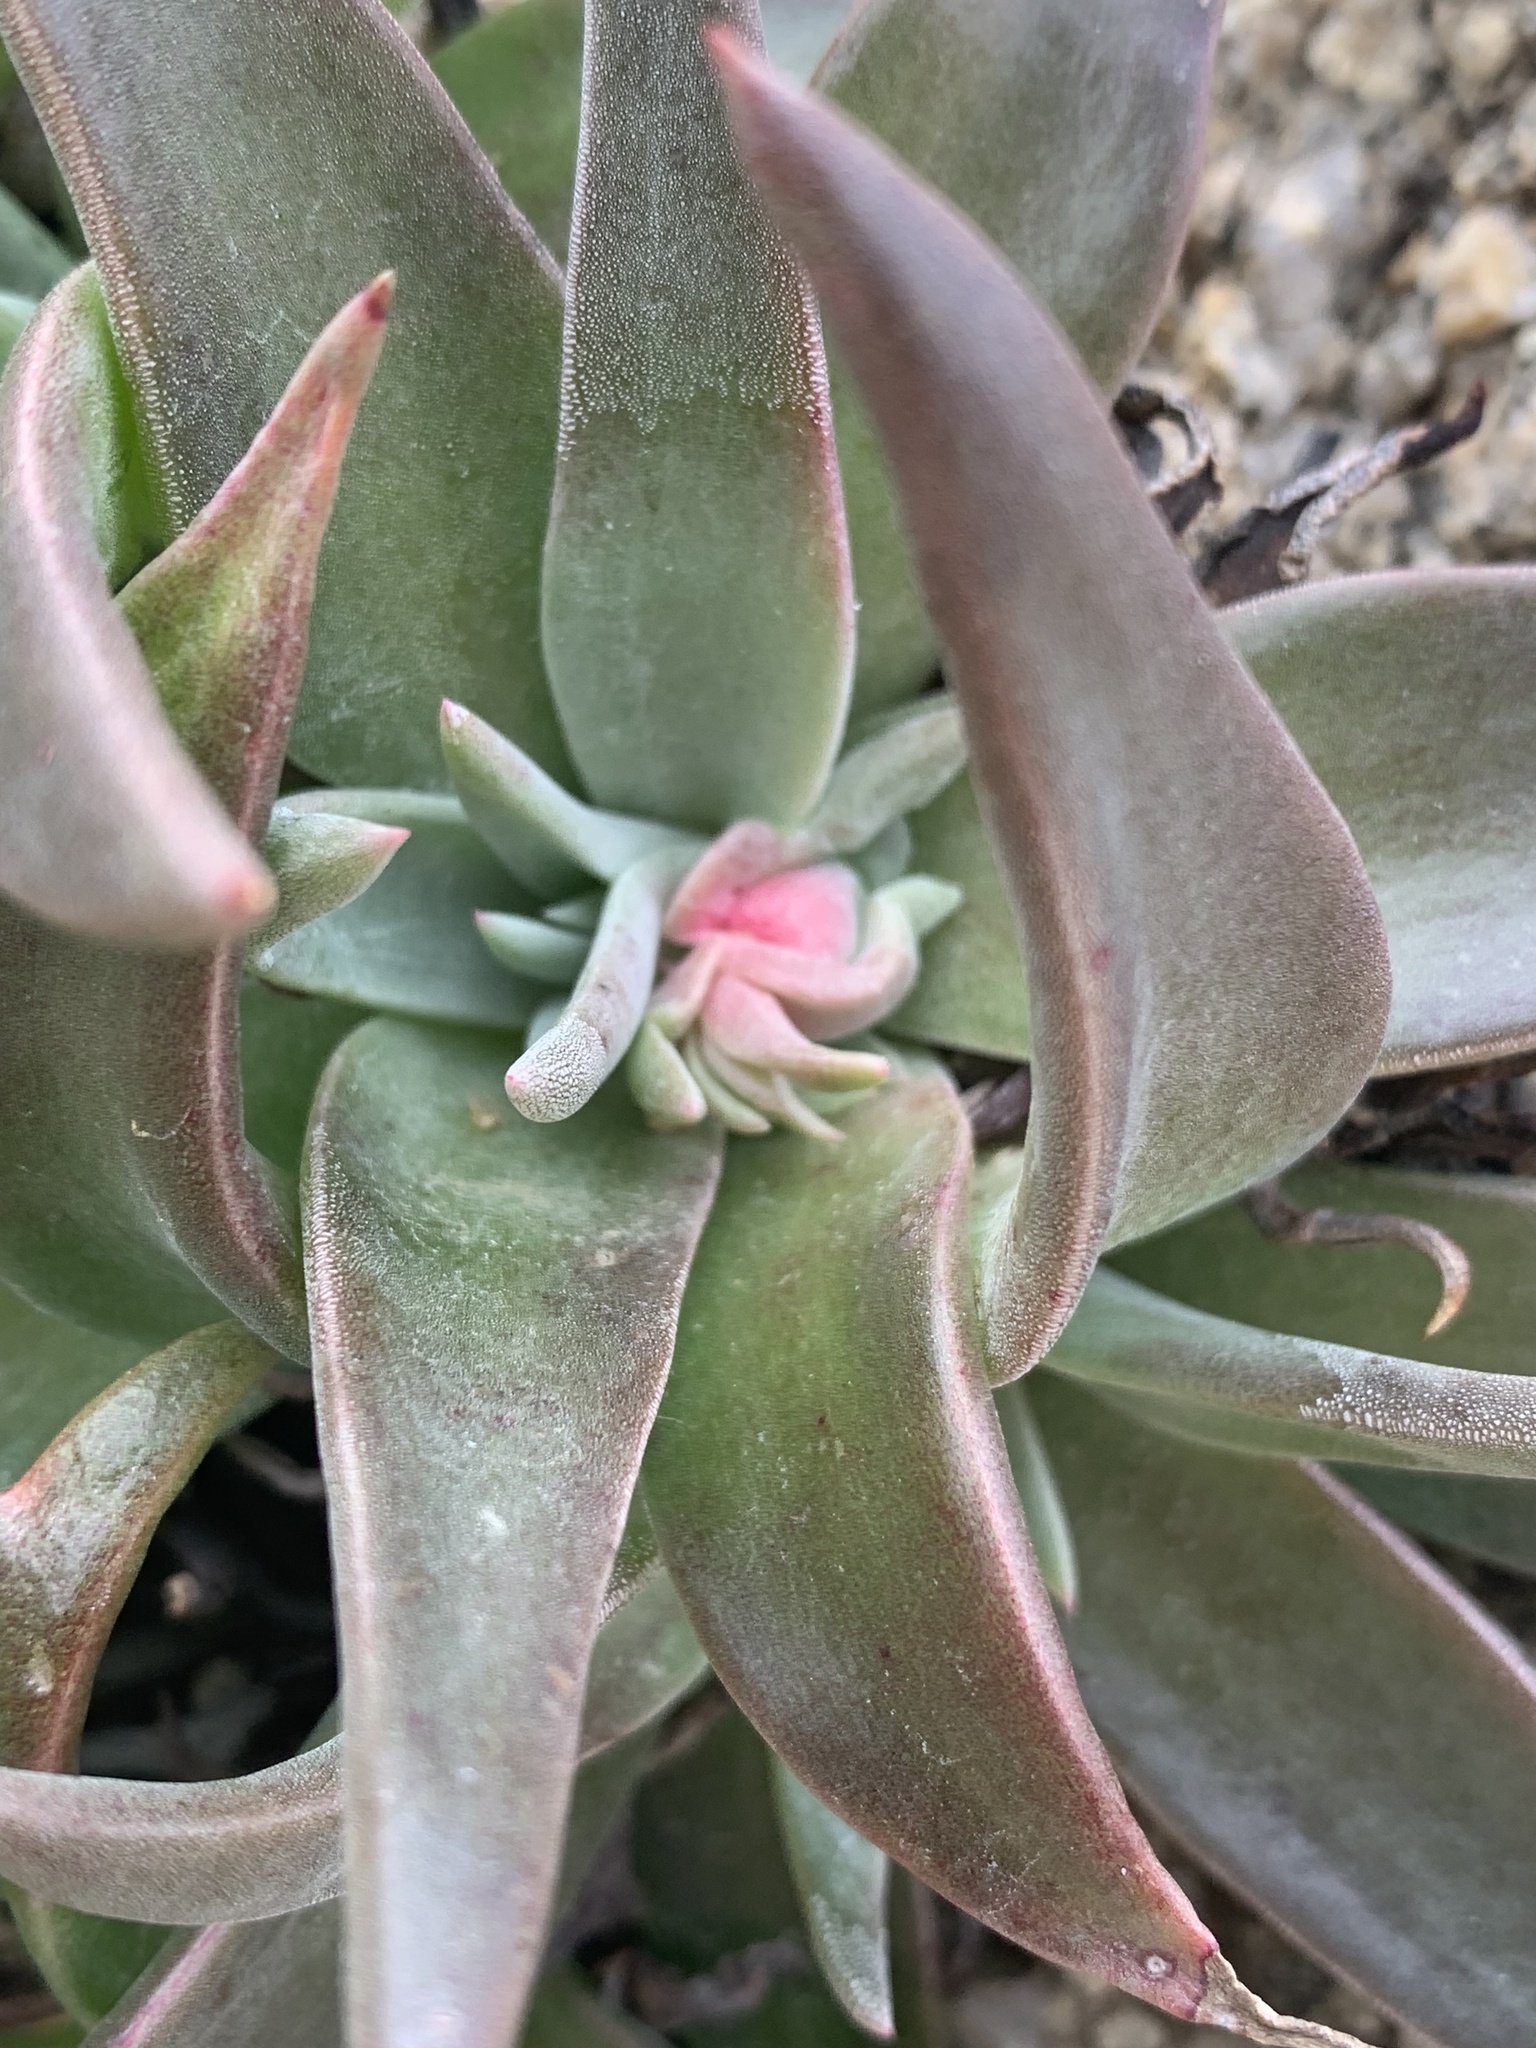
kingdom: Plantae
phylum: Tracheophyta
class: Magnoliopsida
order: Saxifragales
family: Crassulaceae
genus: Dudleya
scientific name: Dudleya saxosa
